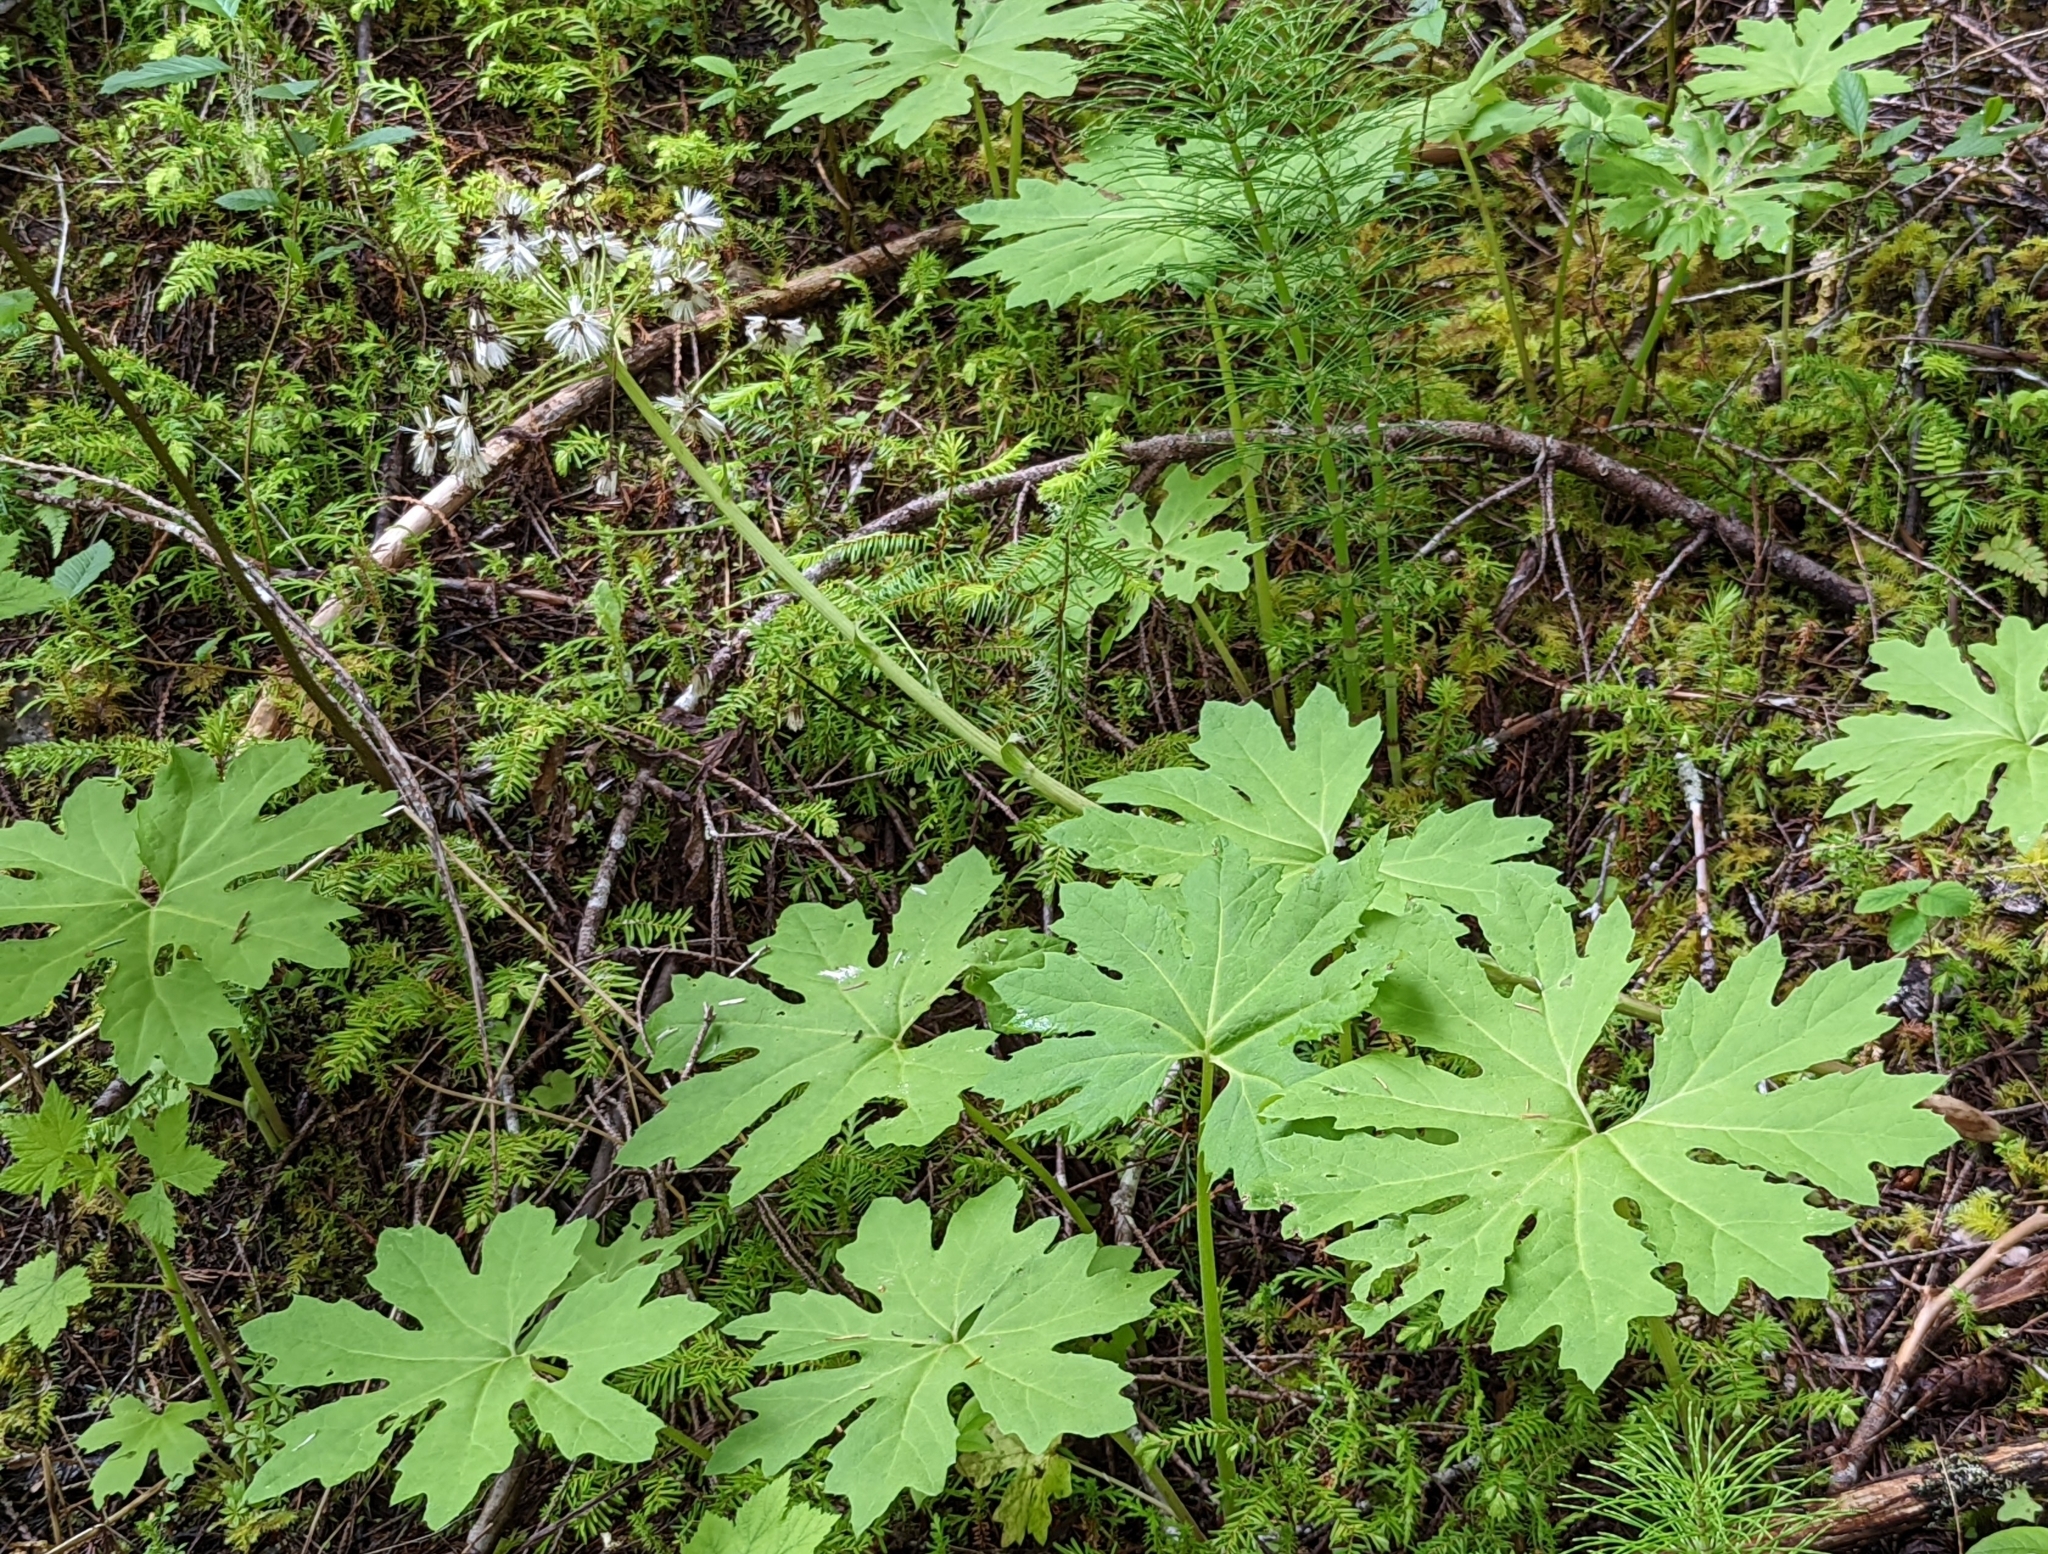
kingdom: Plantae
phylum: Tracheophyta
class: Magnoliopsida
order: Asterales
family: Asteraceae
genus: Petasites
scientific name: Petasites frigidus
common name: Arctic butterbur
